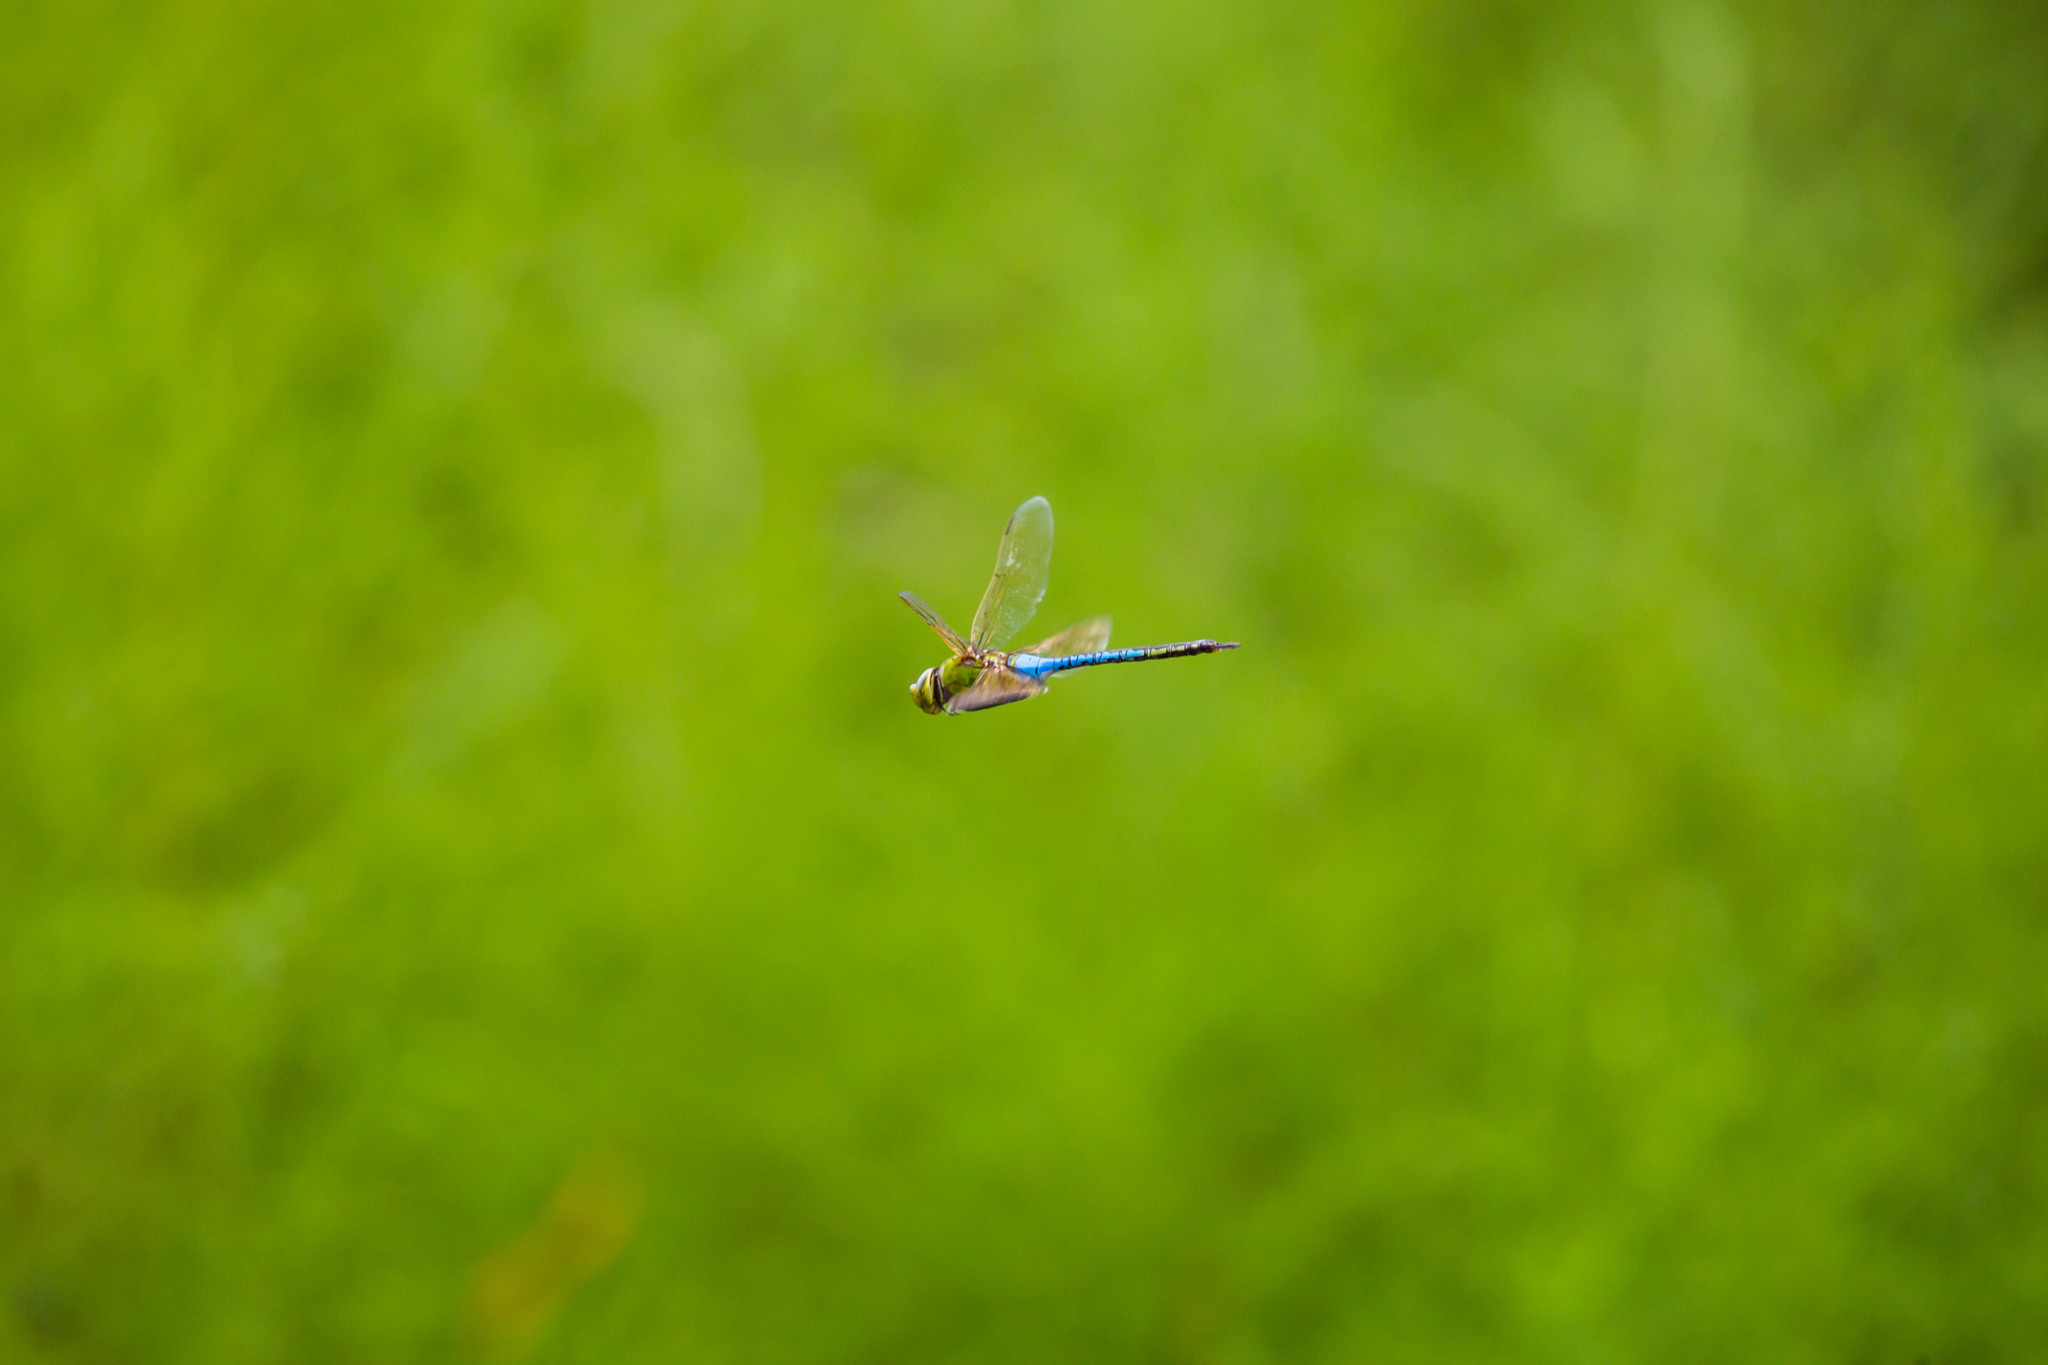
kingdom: Animalia
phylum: Arthropoda
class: Insecta
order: Odonata
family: Aeshnidae
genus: Anax
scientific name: Anax junius
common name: Common green darner
